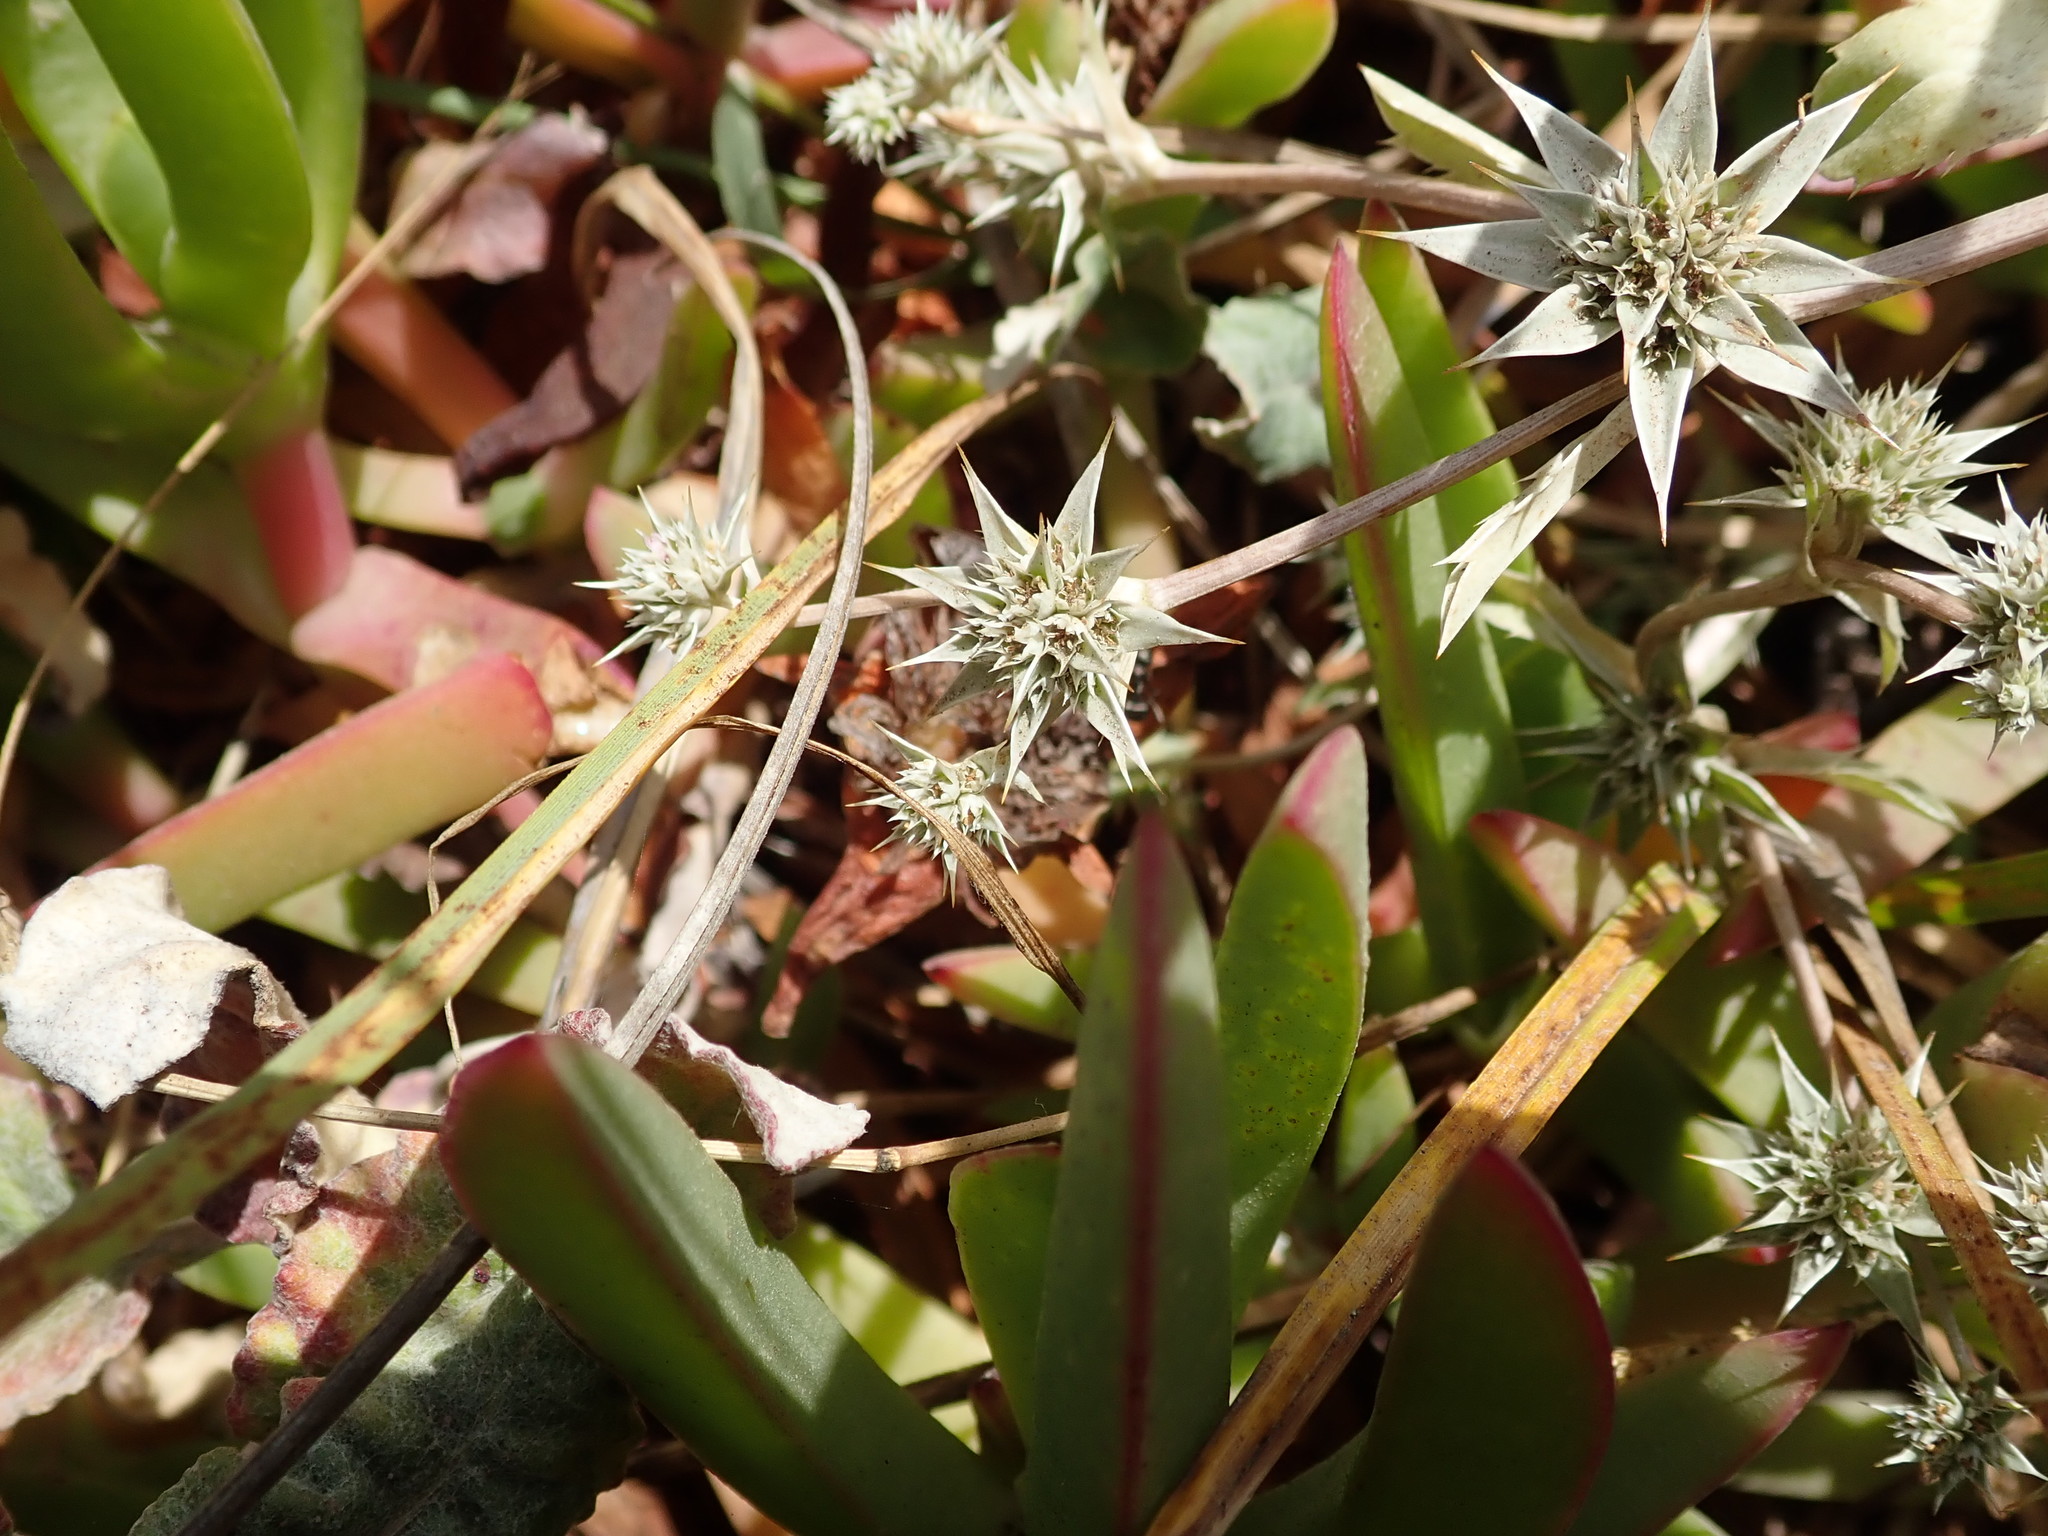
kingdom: Plantae
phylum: Tracheophyta
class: Magnoliopsida
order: Apiales
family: Apiaceae
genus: Eryngium
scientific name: Eryngium armatum
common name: Coyote thistle
